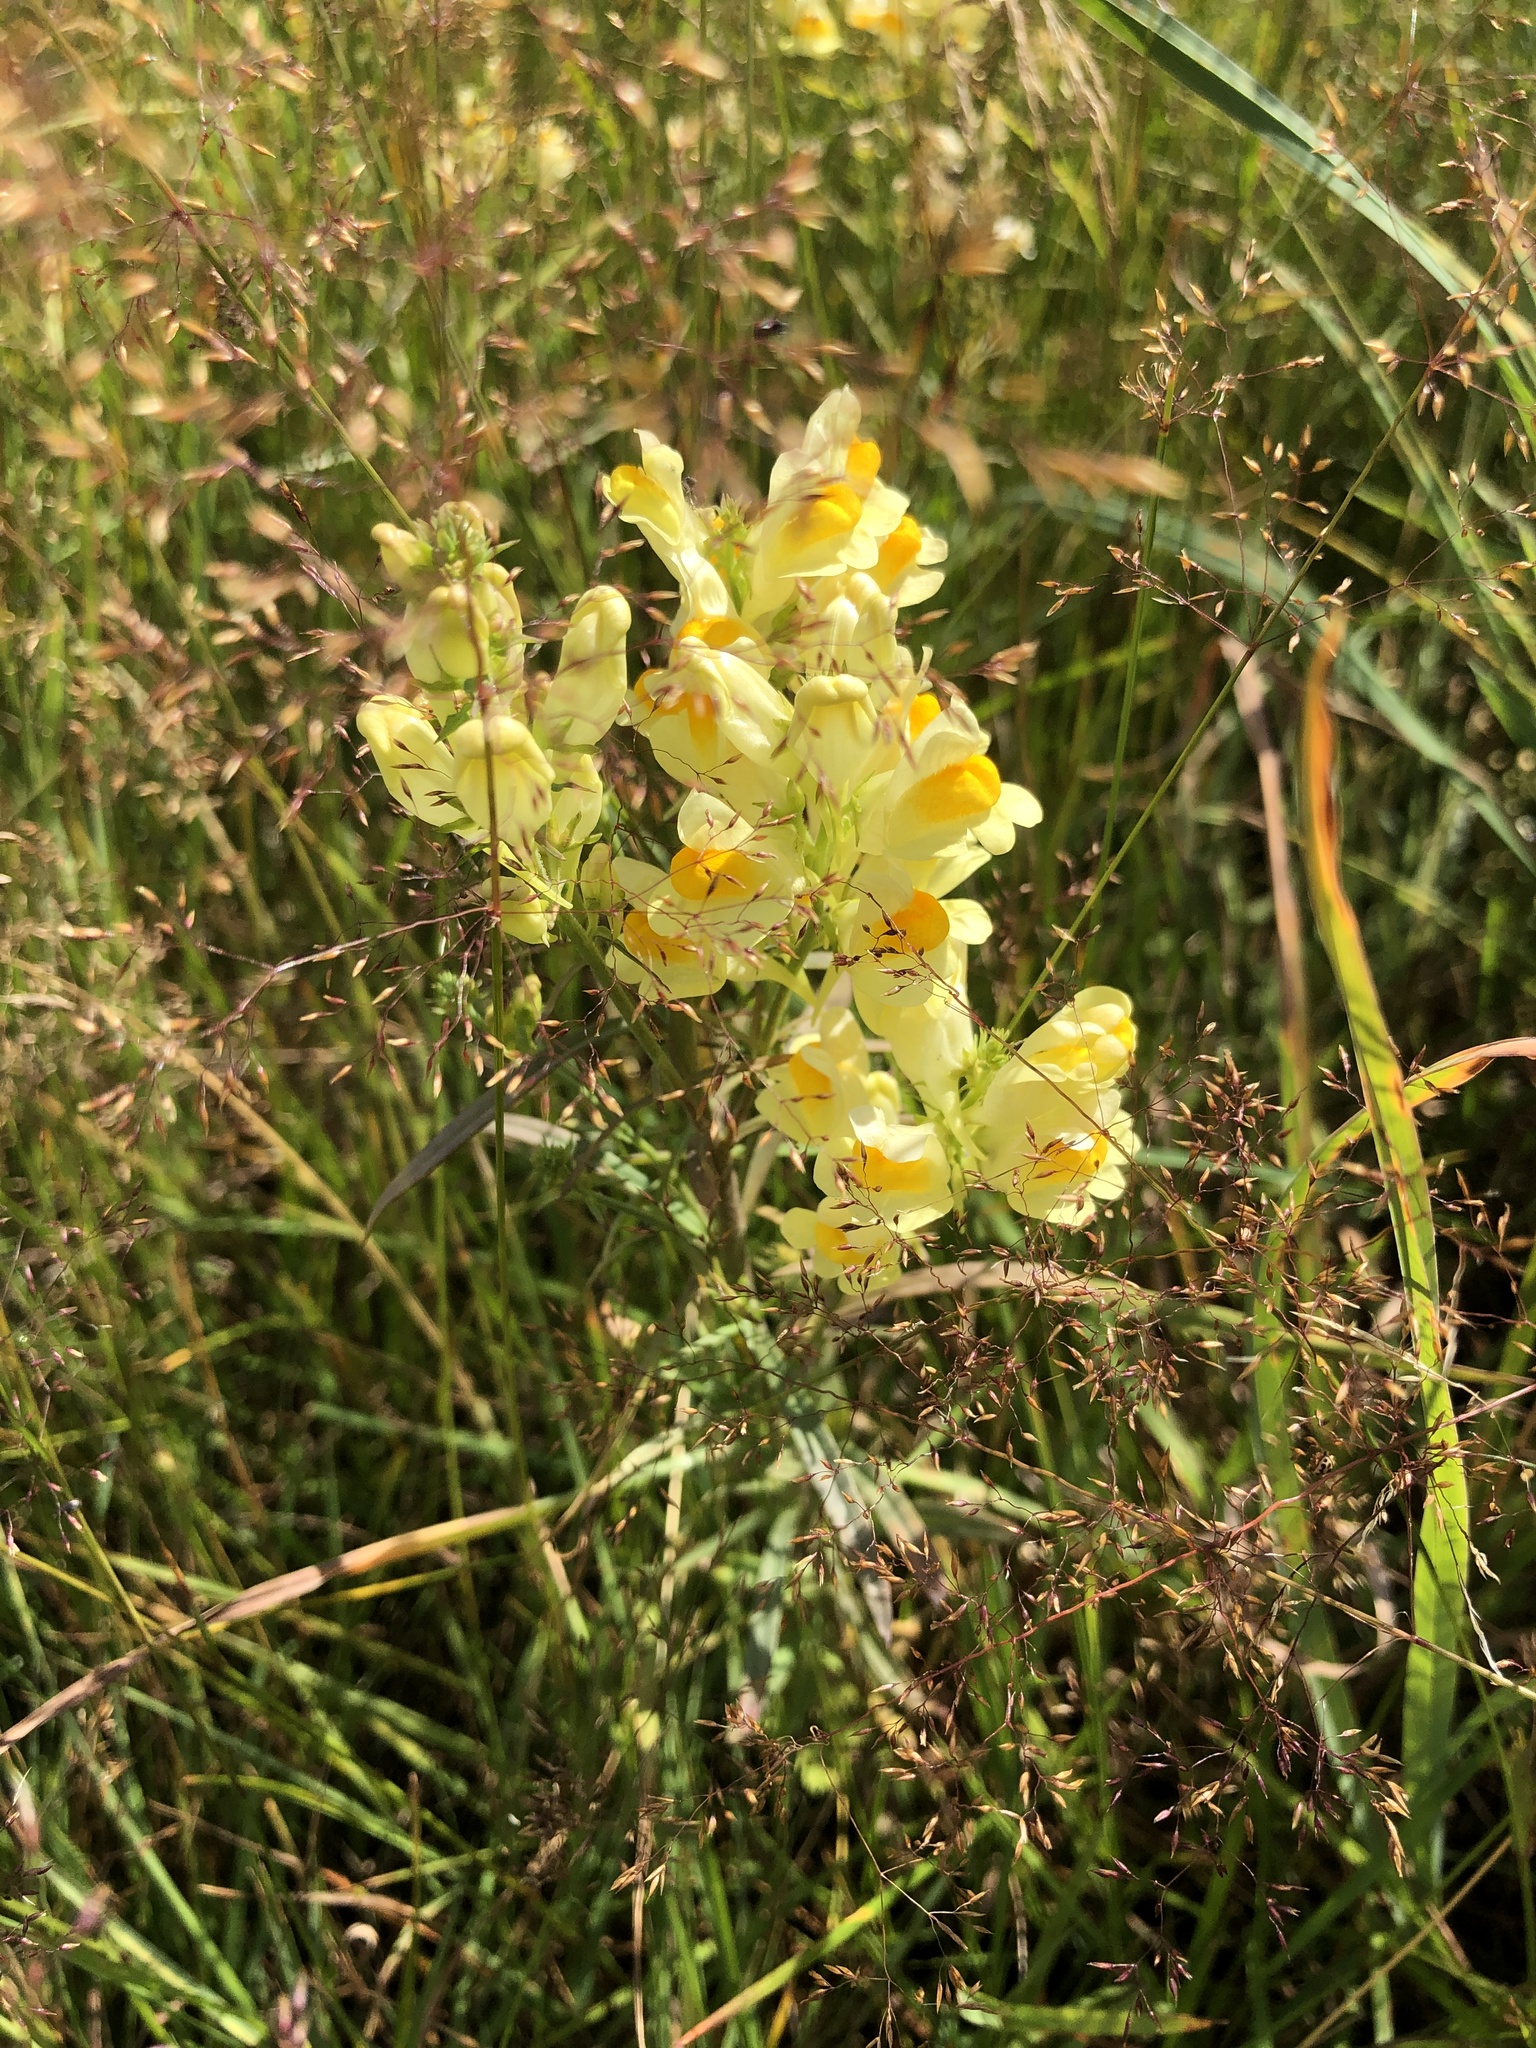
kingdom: Plantae
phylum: Tracheophyta
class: Magnoliopsida
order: Lamiales
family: Plantaginaceae
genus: Linaria
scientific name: Linaria vulgaris
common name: Butter and eggs
